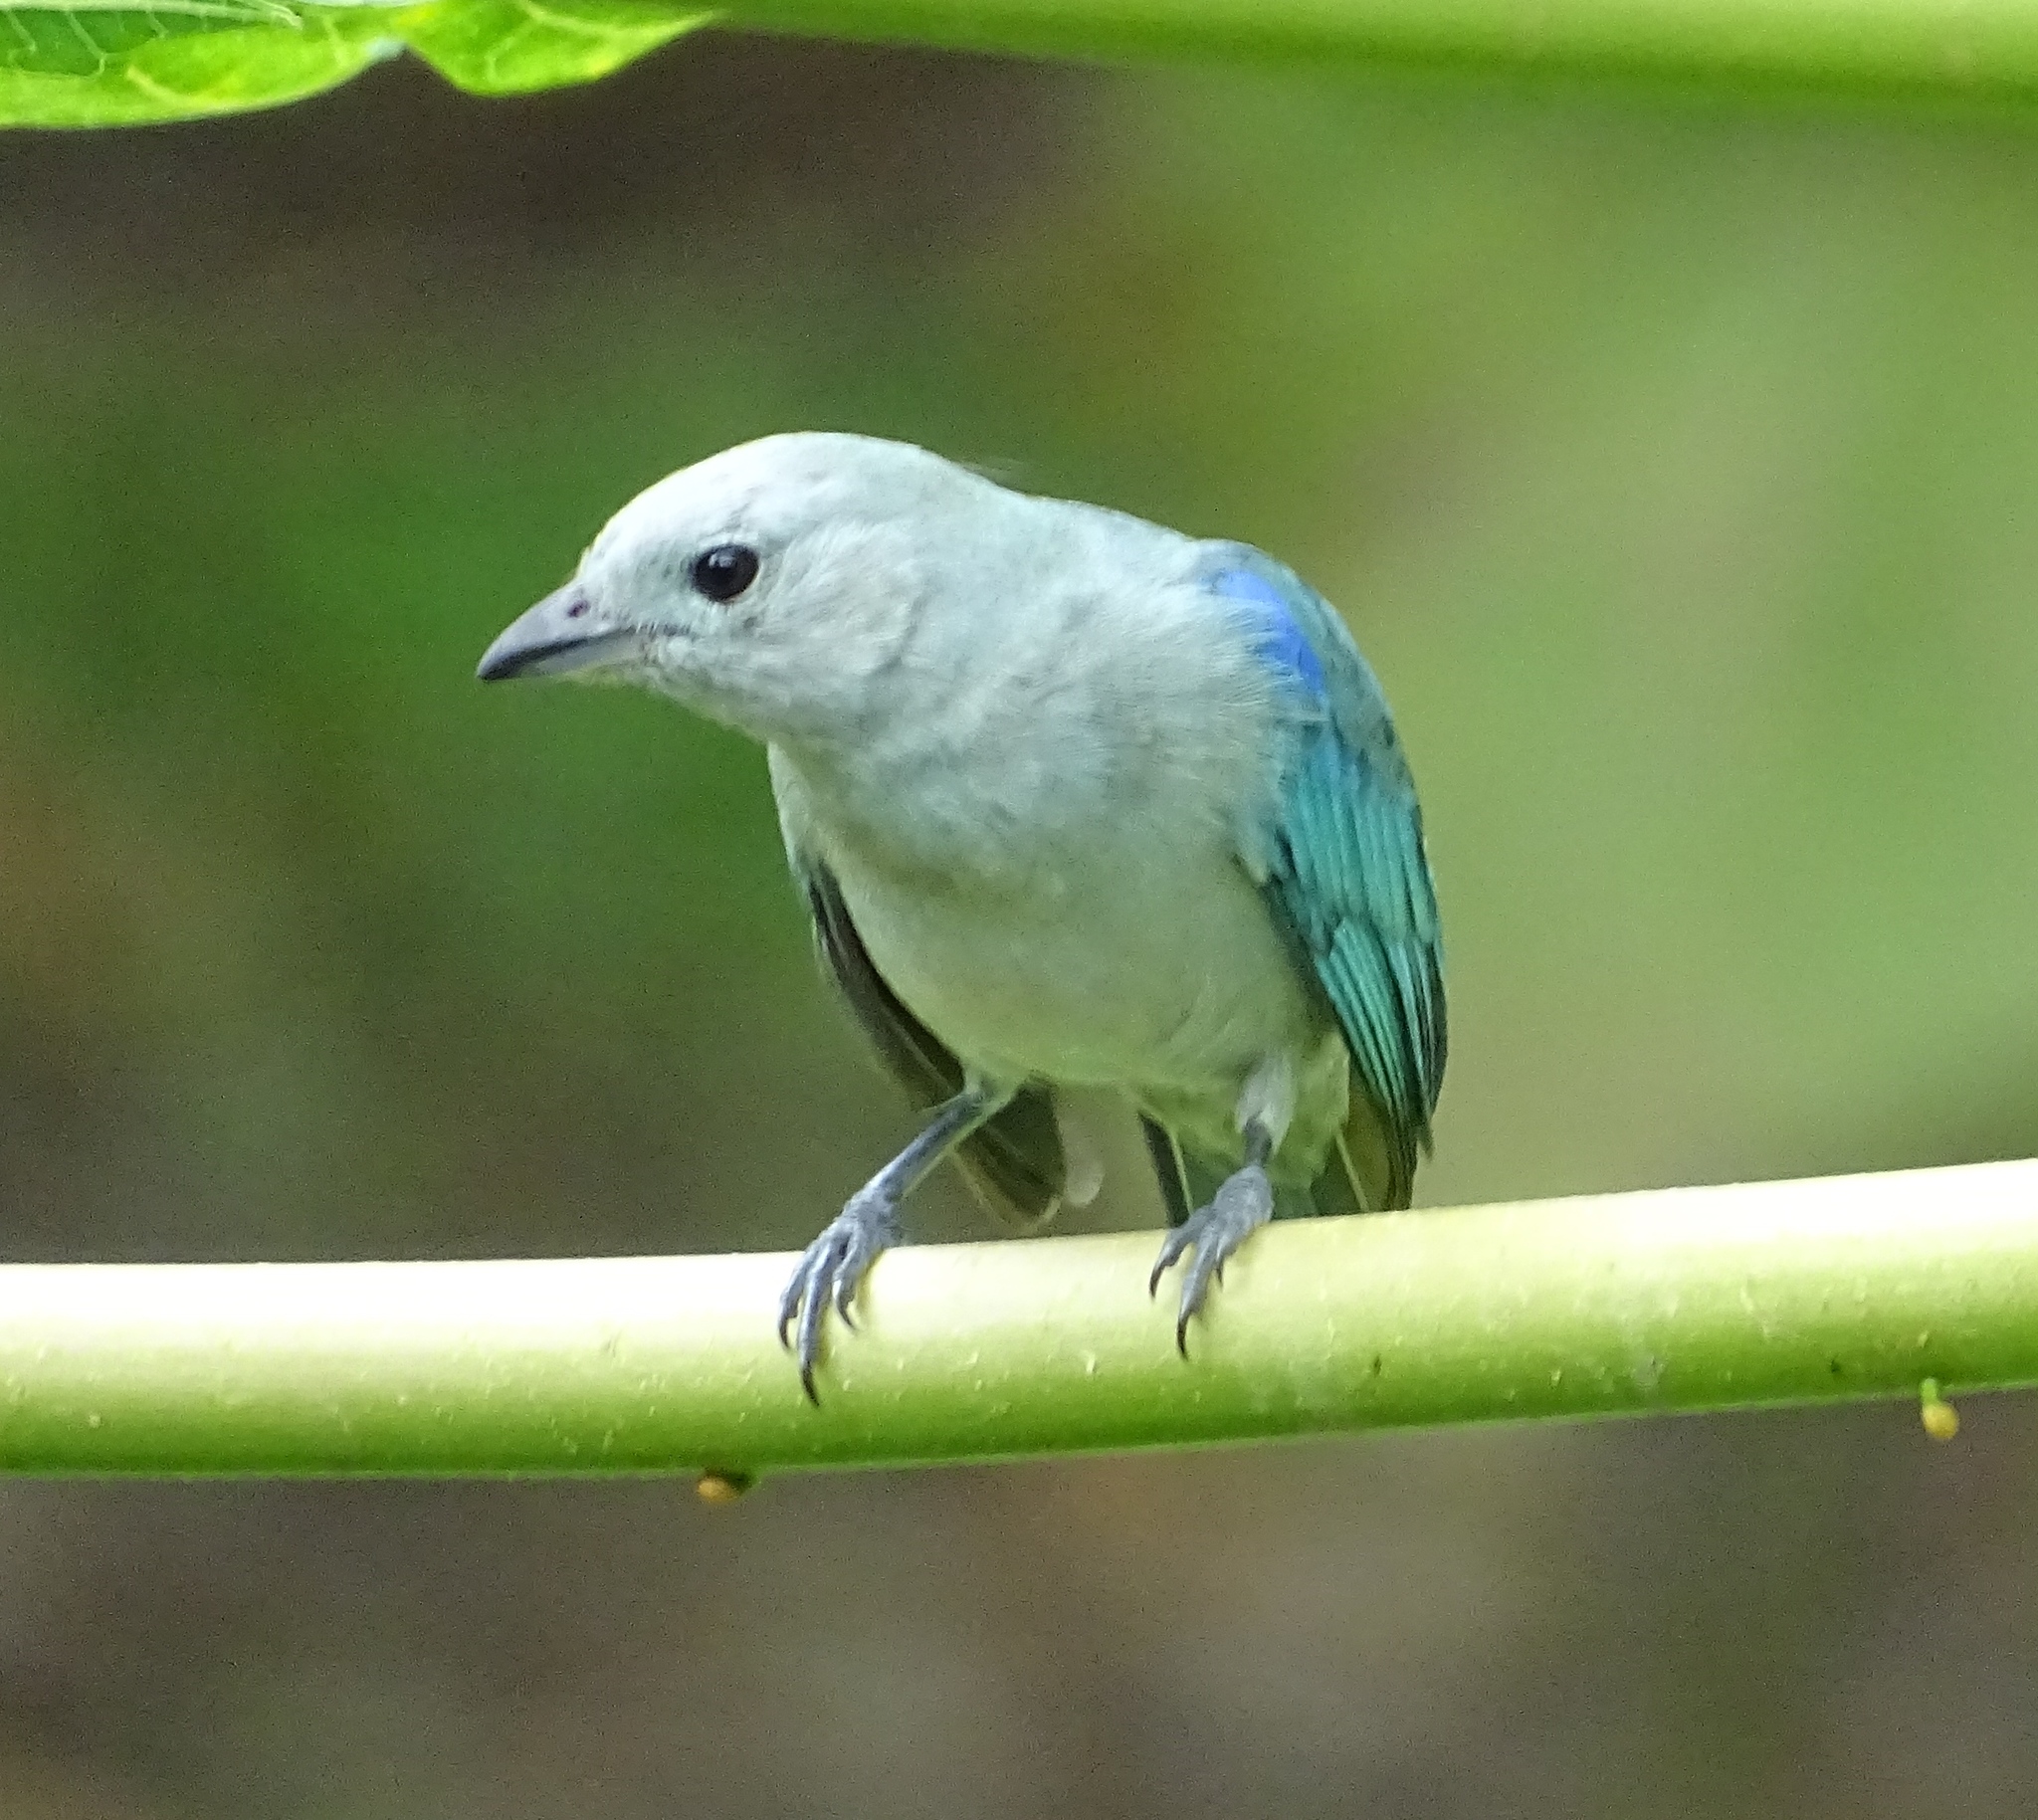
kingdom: Animalia
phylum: Chordata
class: Aves
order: Passeriformes
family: Thraupidae
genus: Thraupis
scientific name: Thraupis episcopus
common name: Blue-grey tanager
